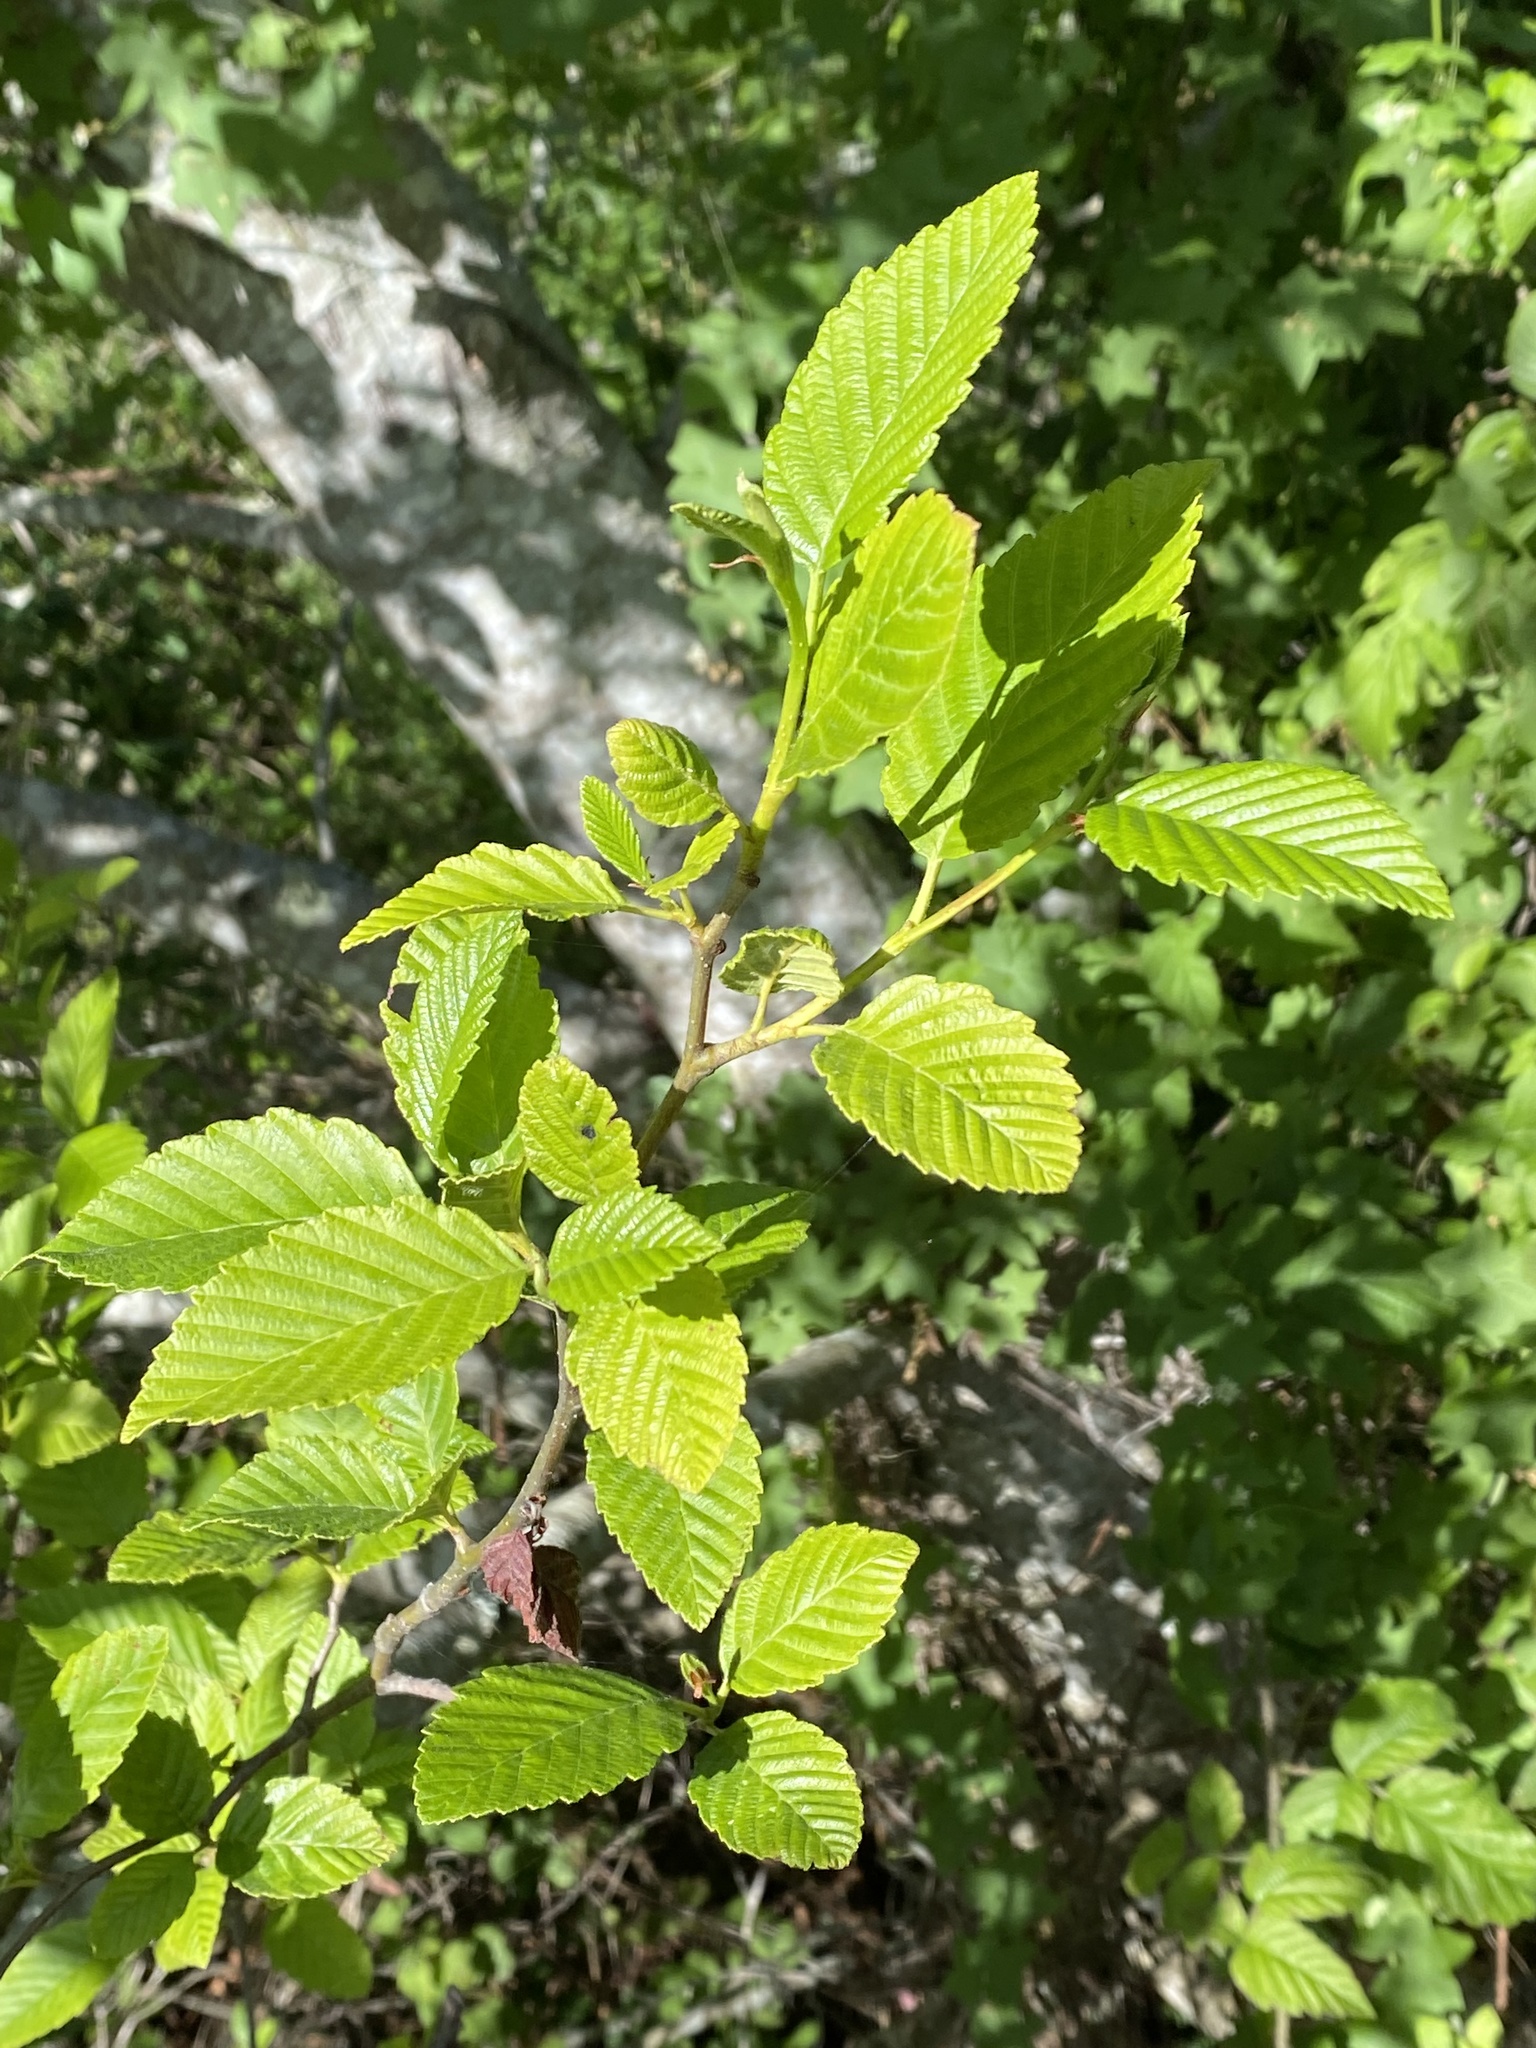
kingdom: Plantae
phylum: Tracheophyta
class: Magnoliopsida
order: Fagales
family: Betulaceae
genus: Alnus
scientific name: Alnus rubra
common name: Red alder
